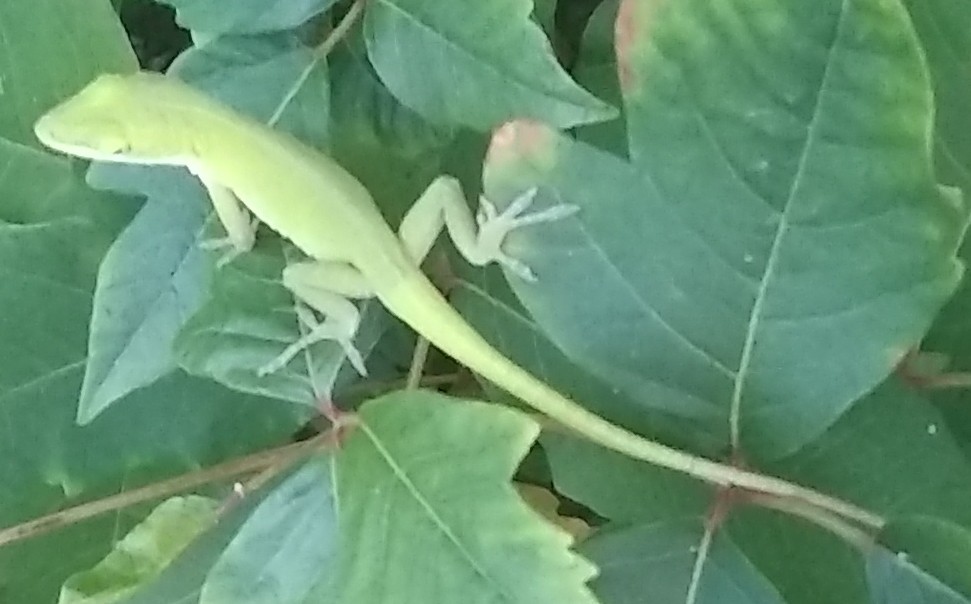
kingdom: Animalia
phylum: Chordata
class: Squamata
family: Dactyloidae
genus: Anolis
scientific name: Anolis carolinensis
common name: Green anole
